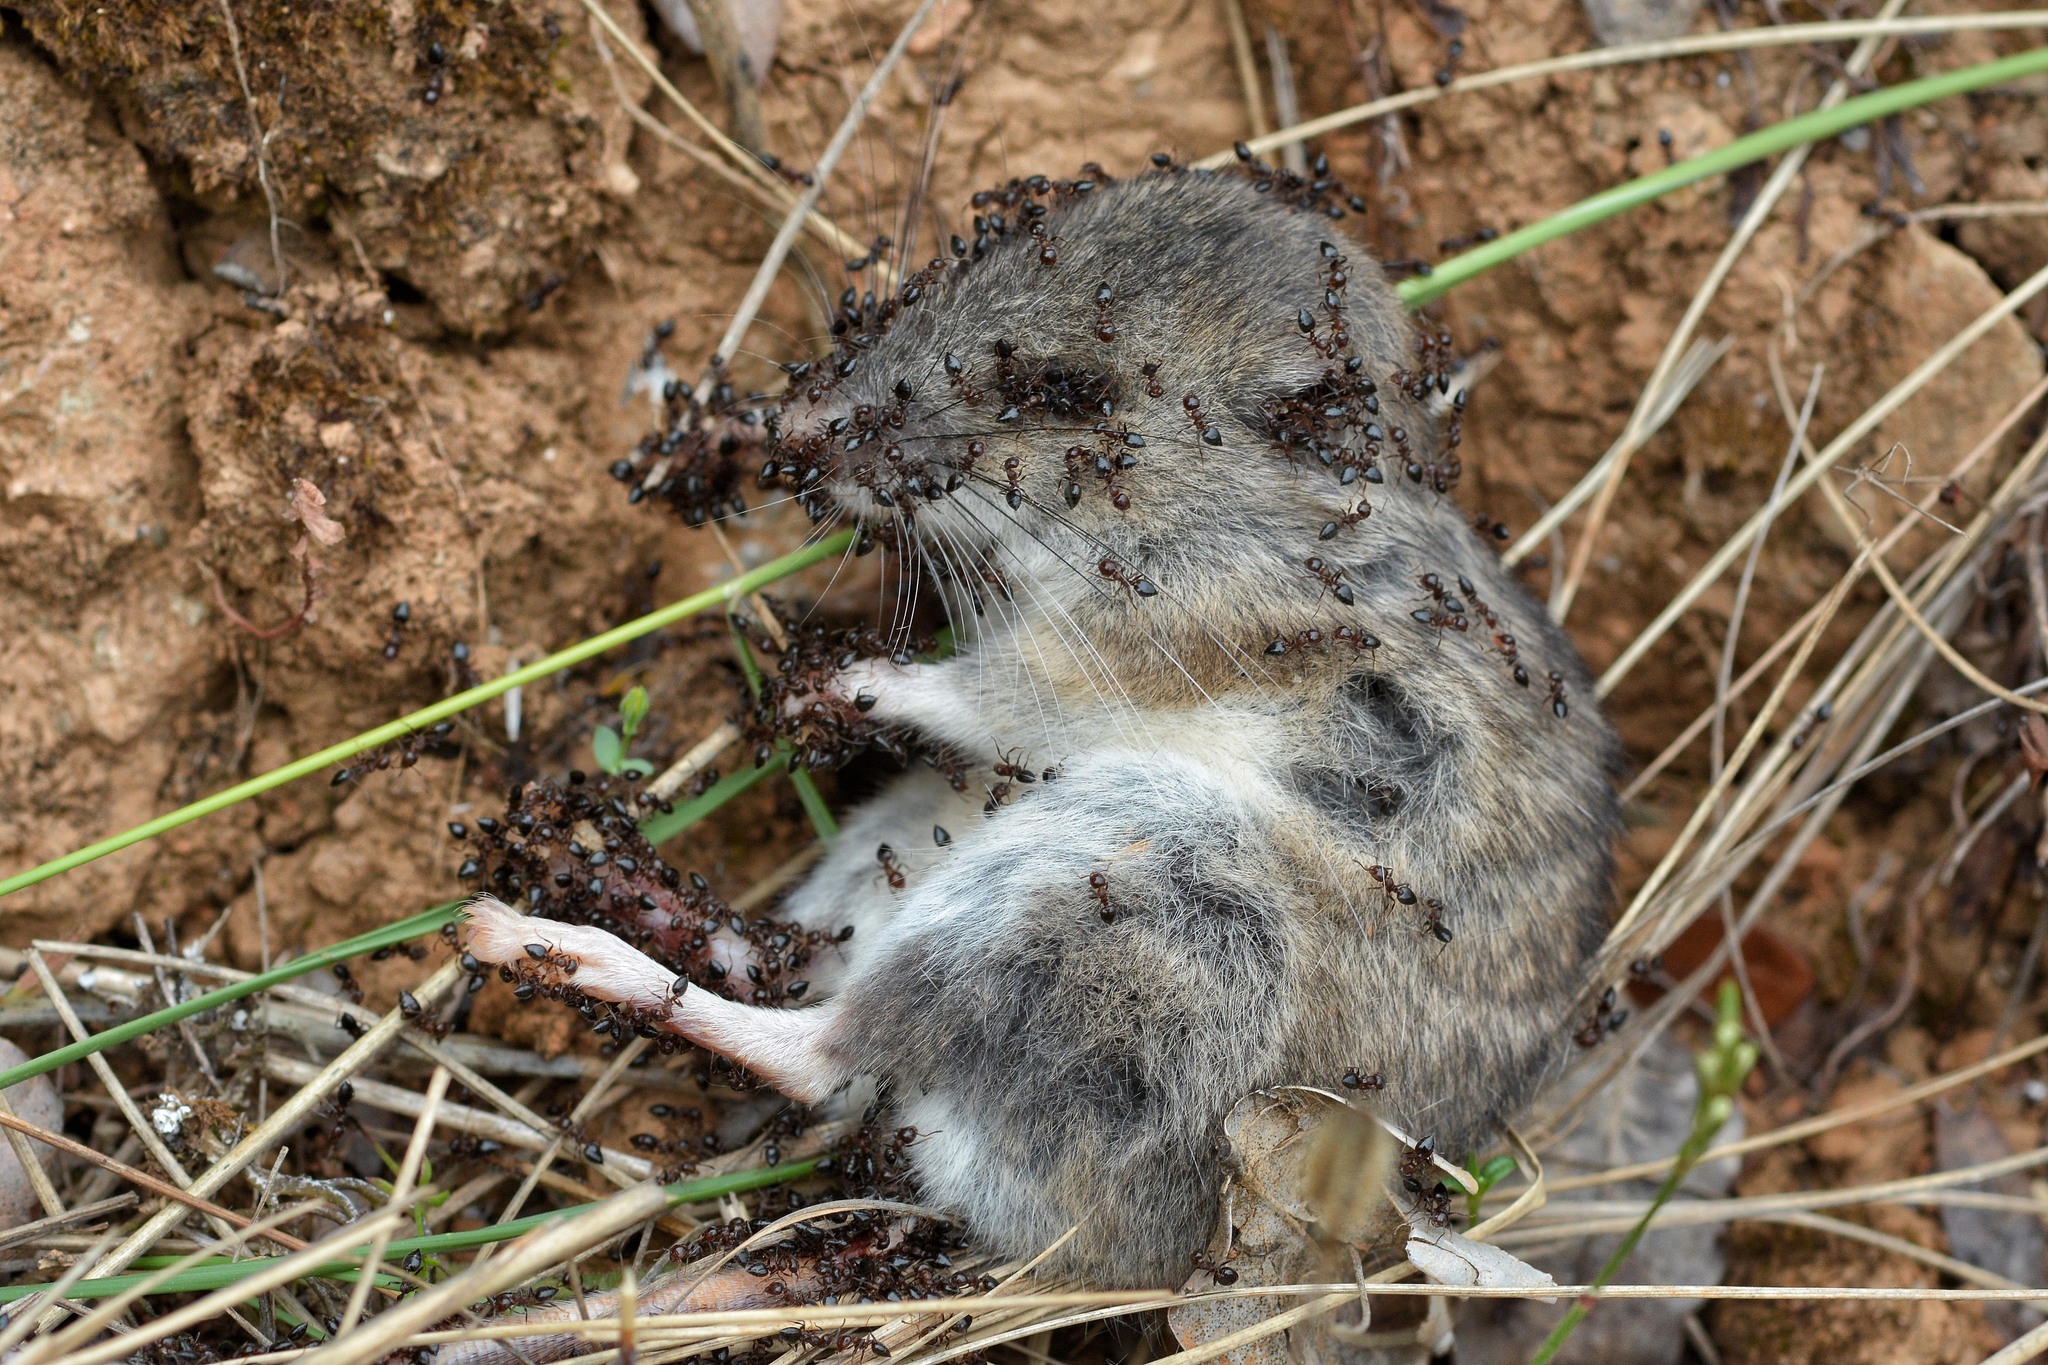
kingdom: Animalia
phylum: Arthropoda
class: Insecta
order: Hymenoptera
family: Formicidae
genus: Crematogaster
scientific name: Crematogaster
